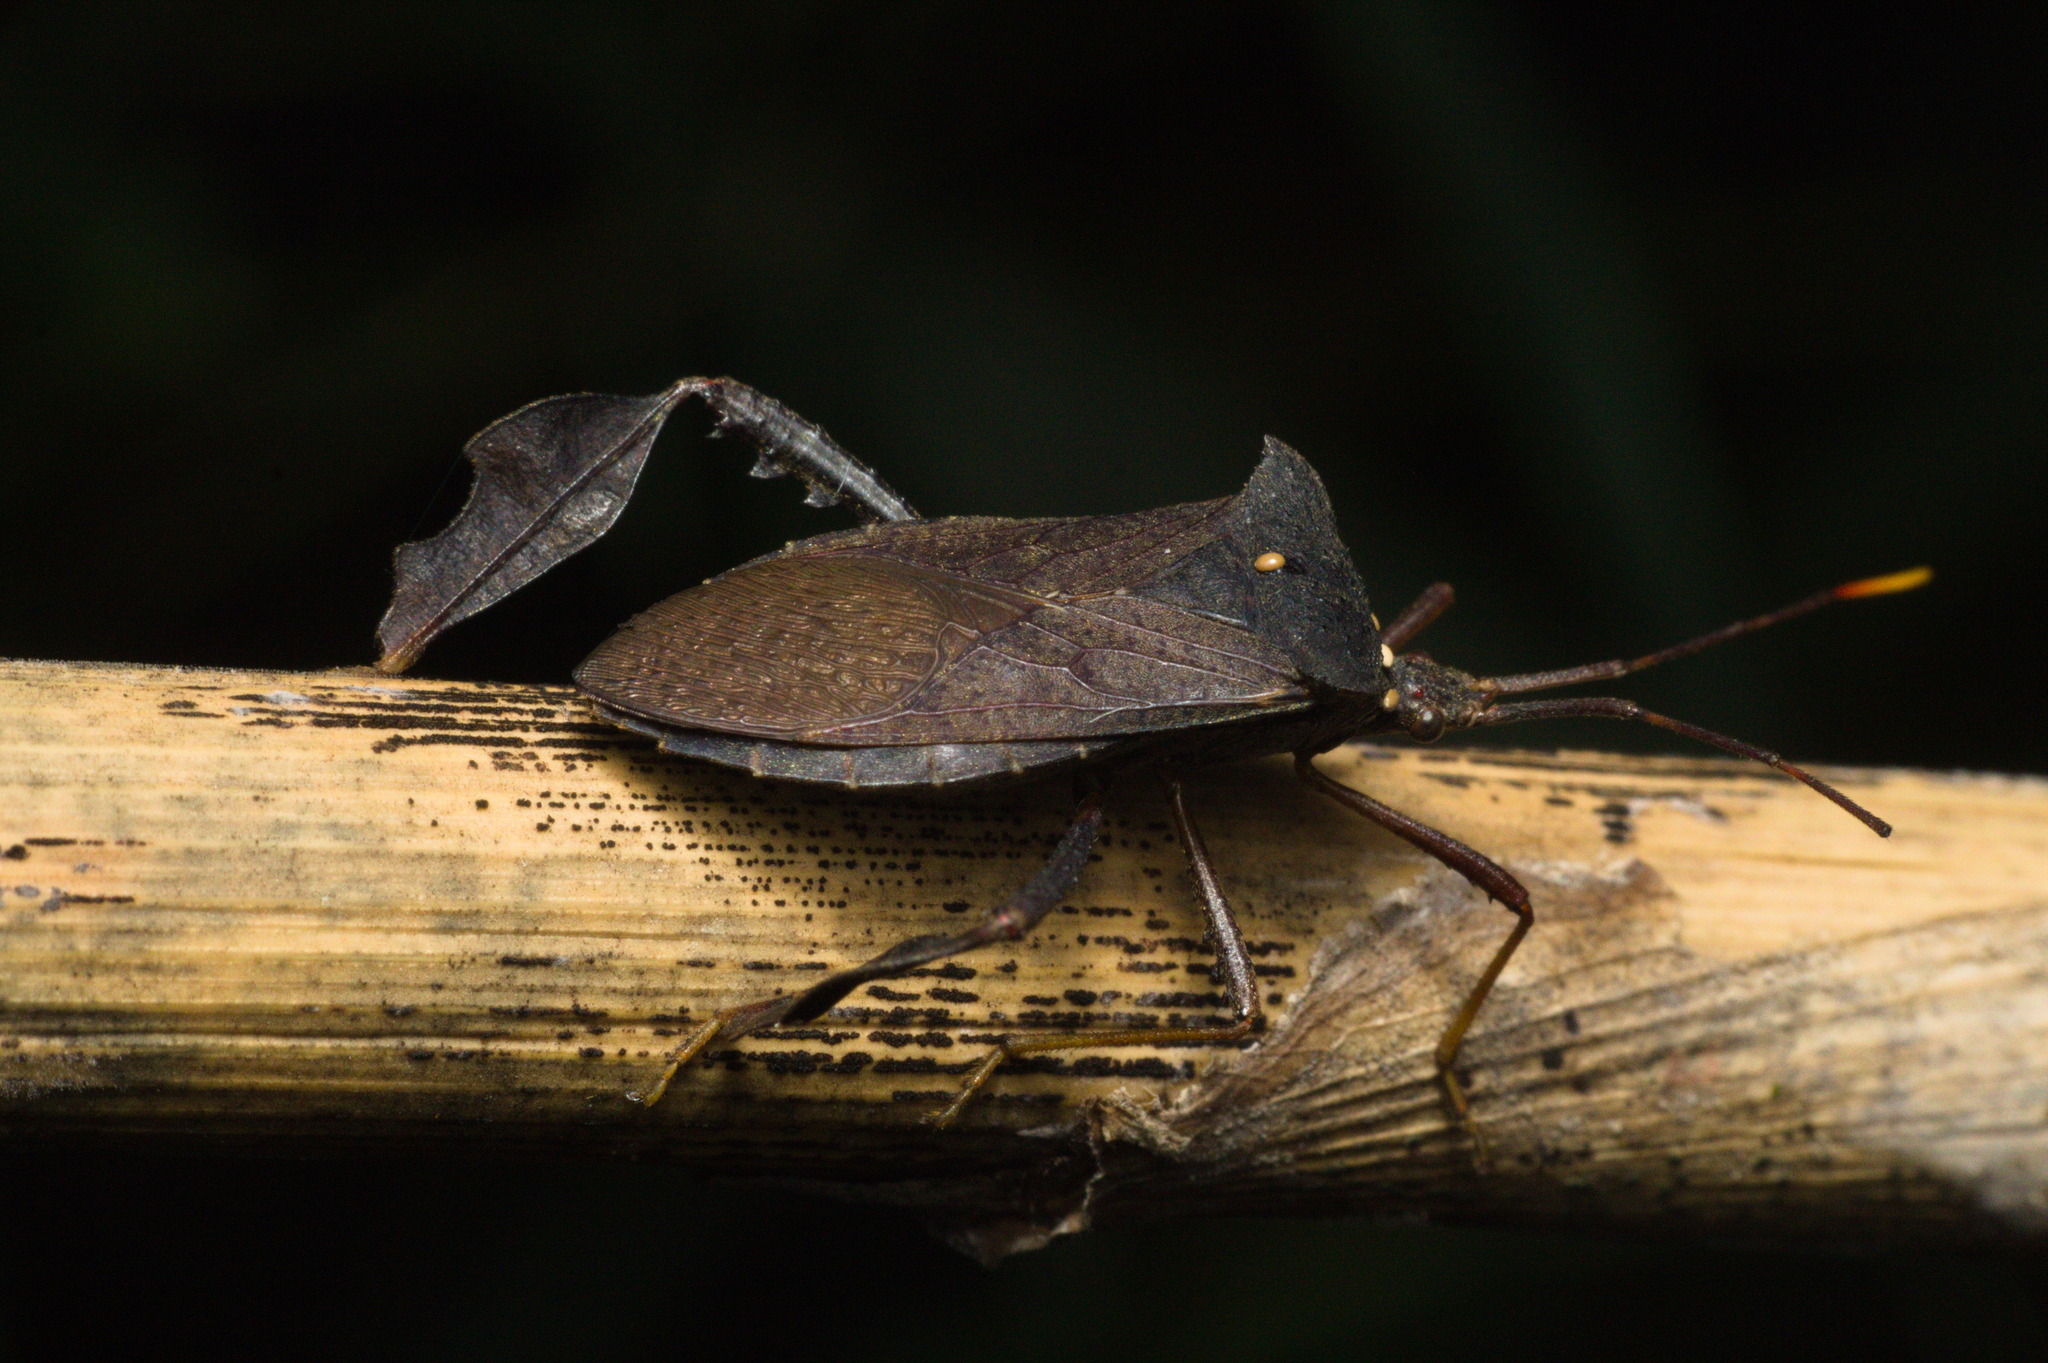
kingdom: Animalia
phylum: Arthropoda
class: Insecta
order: Hemiptera
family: Coreidae
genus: Empedocles
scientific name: Empedocles luridus
